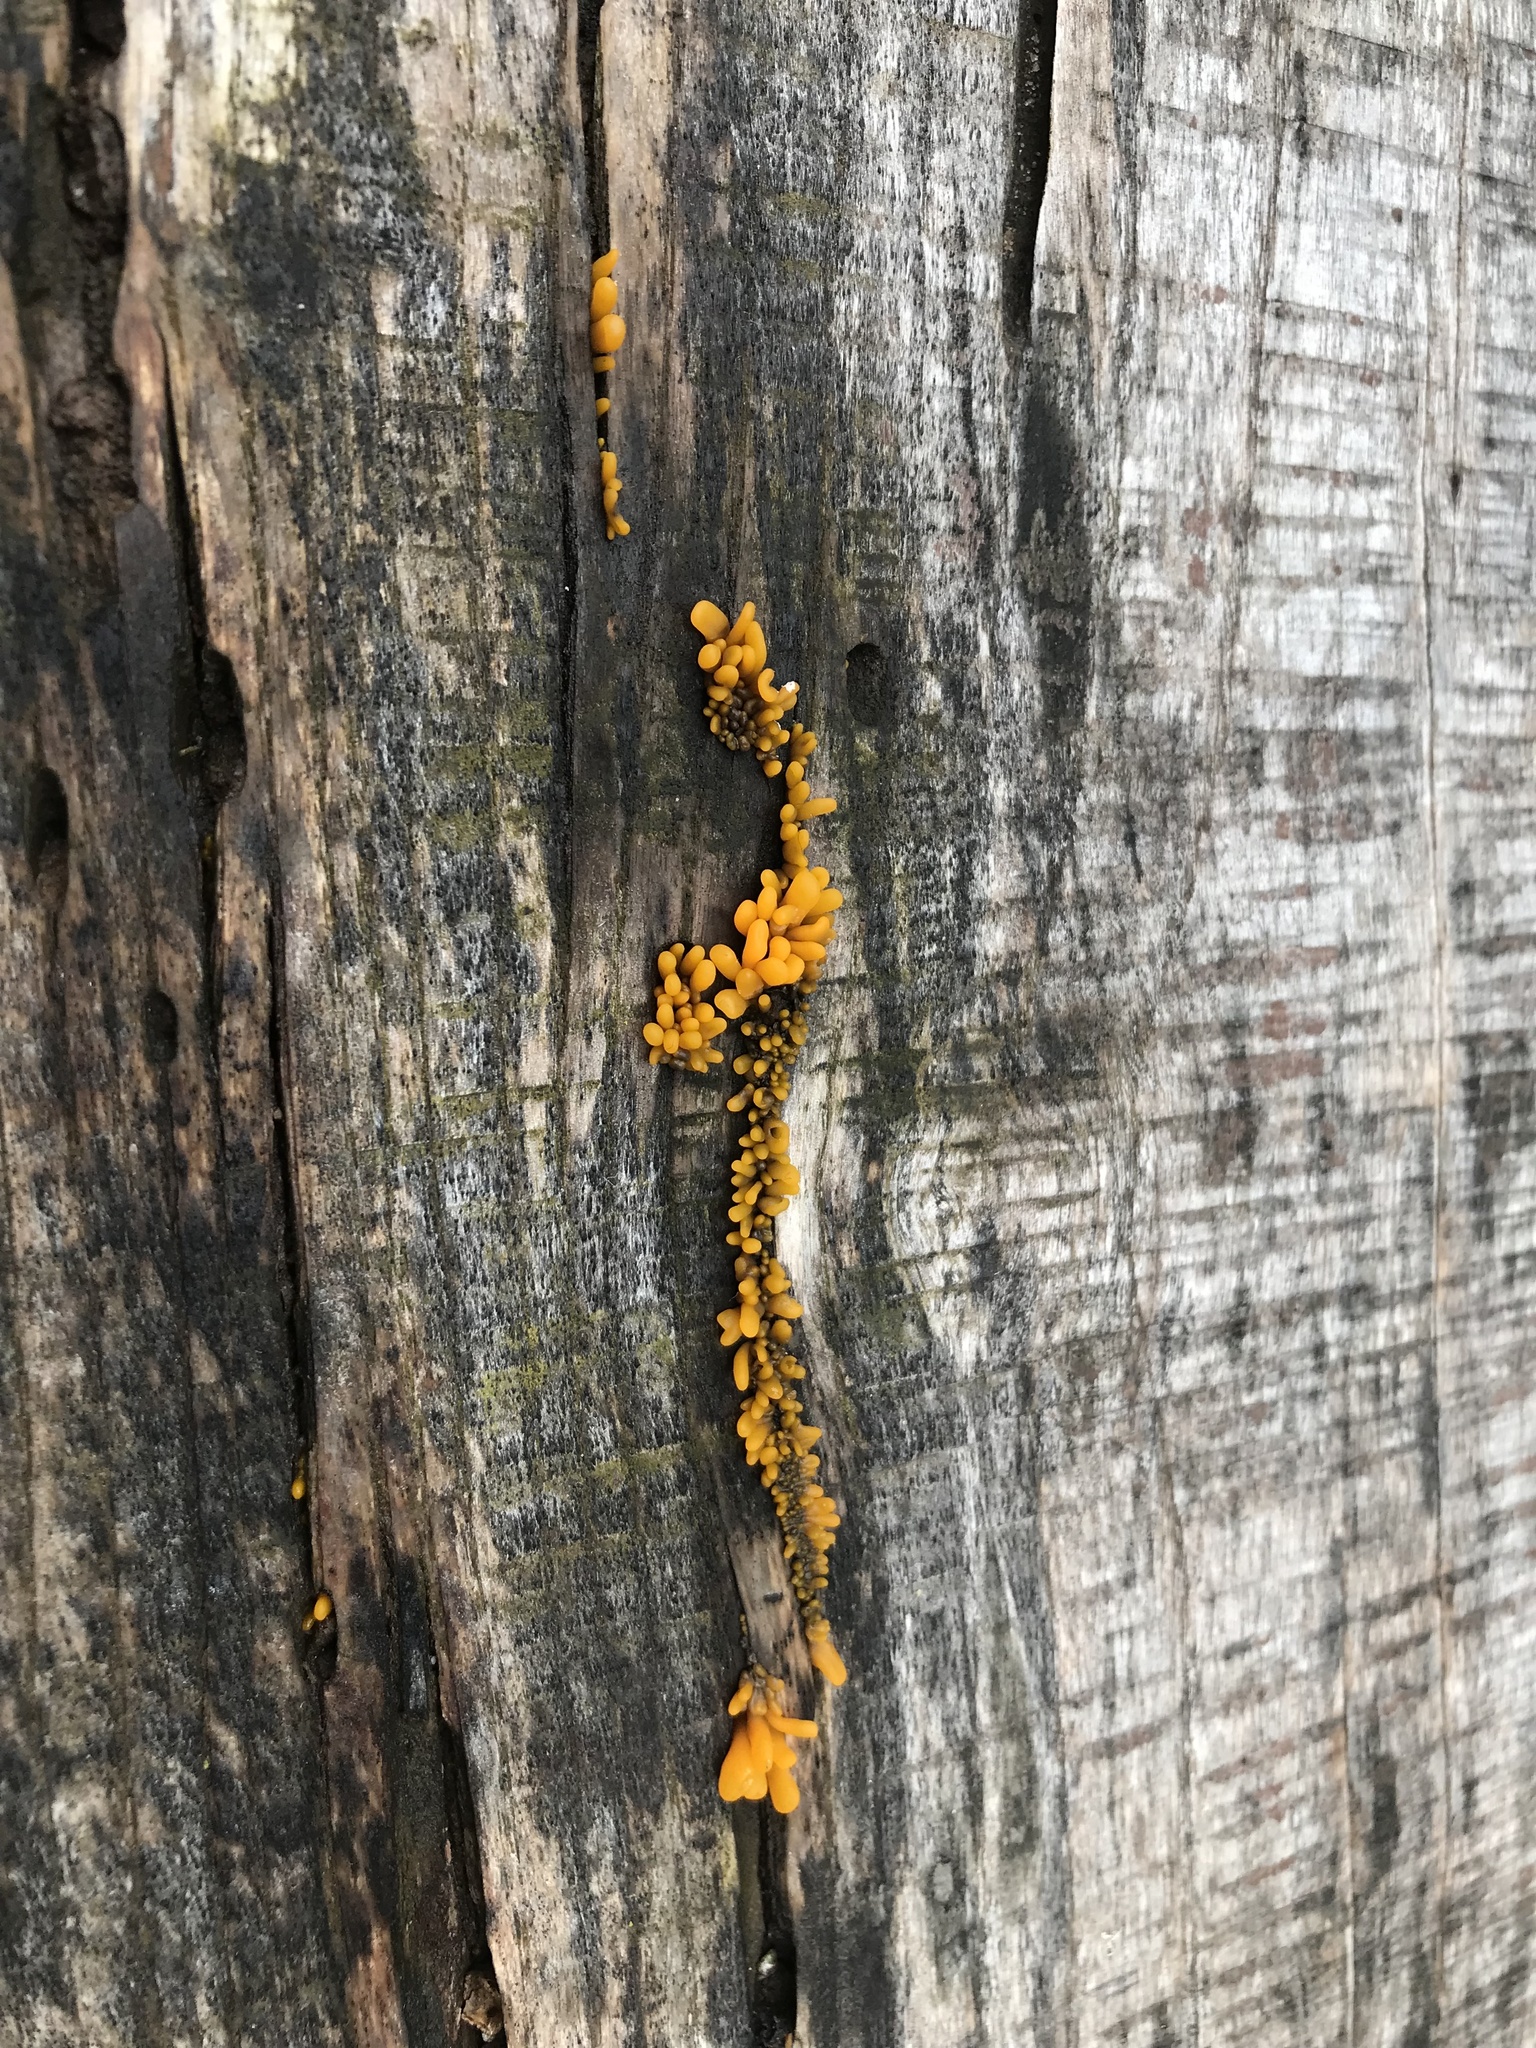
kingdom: Fungi
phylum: Basidiomycota
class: Dacrymycetes
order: Dacrymycetales
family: Dacrymycetaceae
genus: Dacrymyces
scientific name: Dacrymyces spathularius
